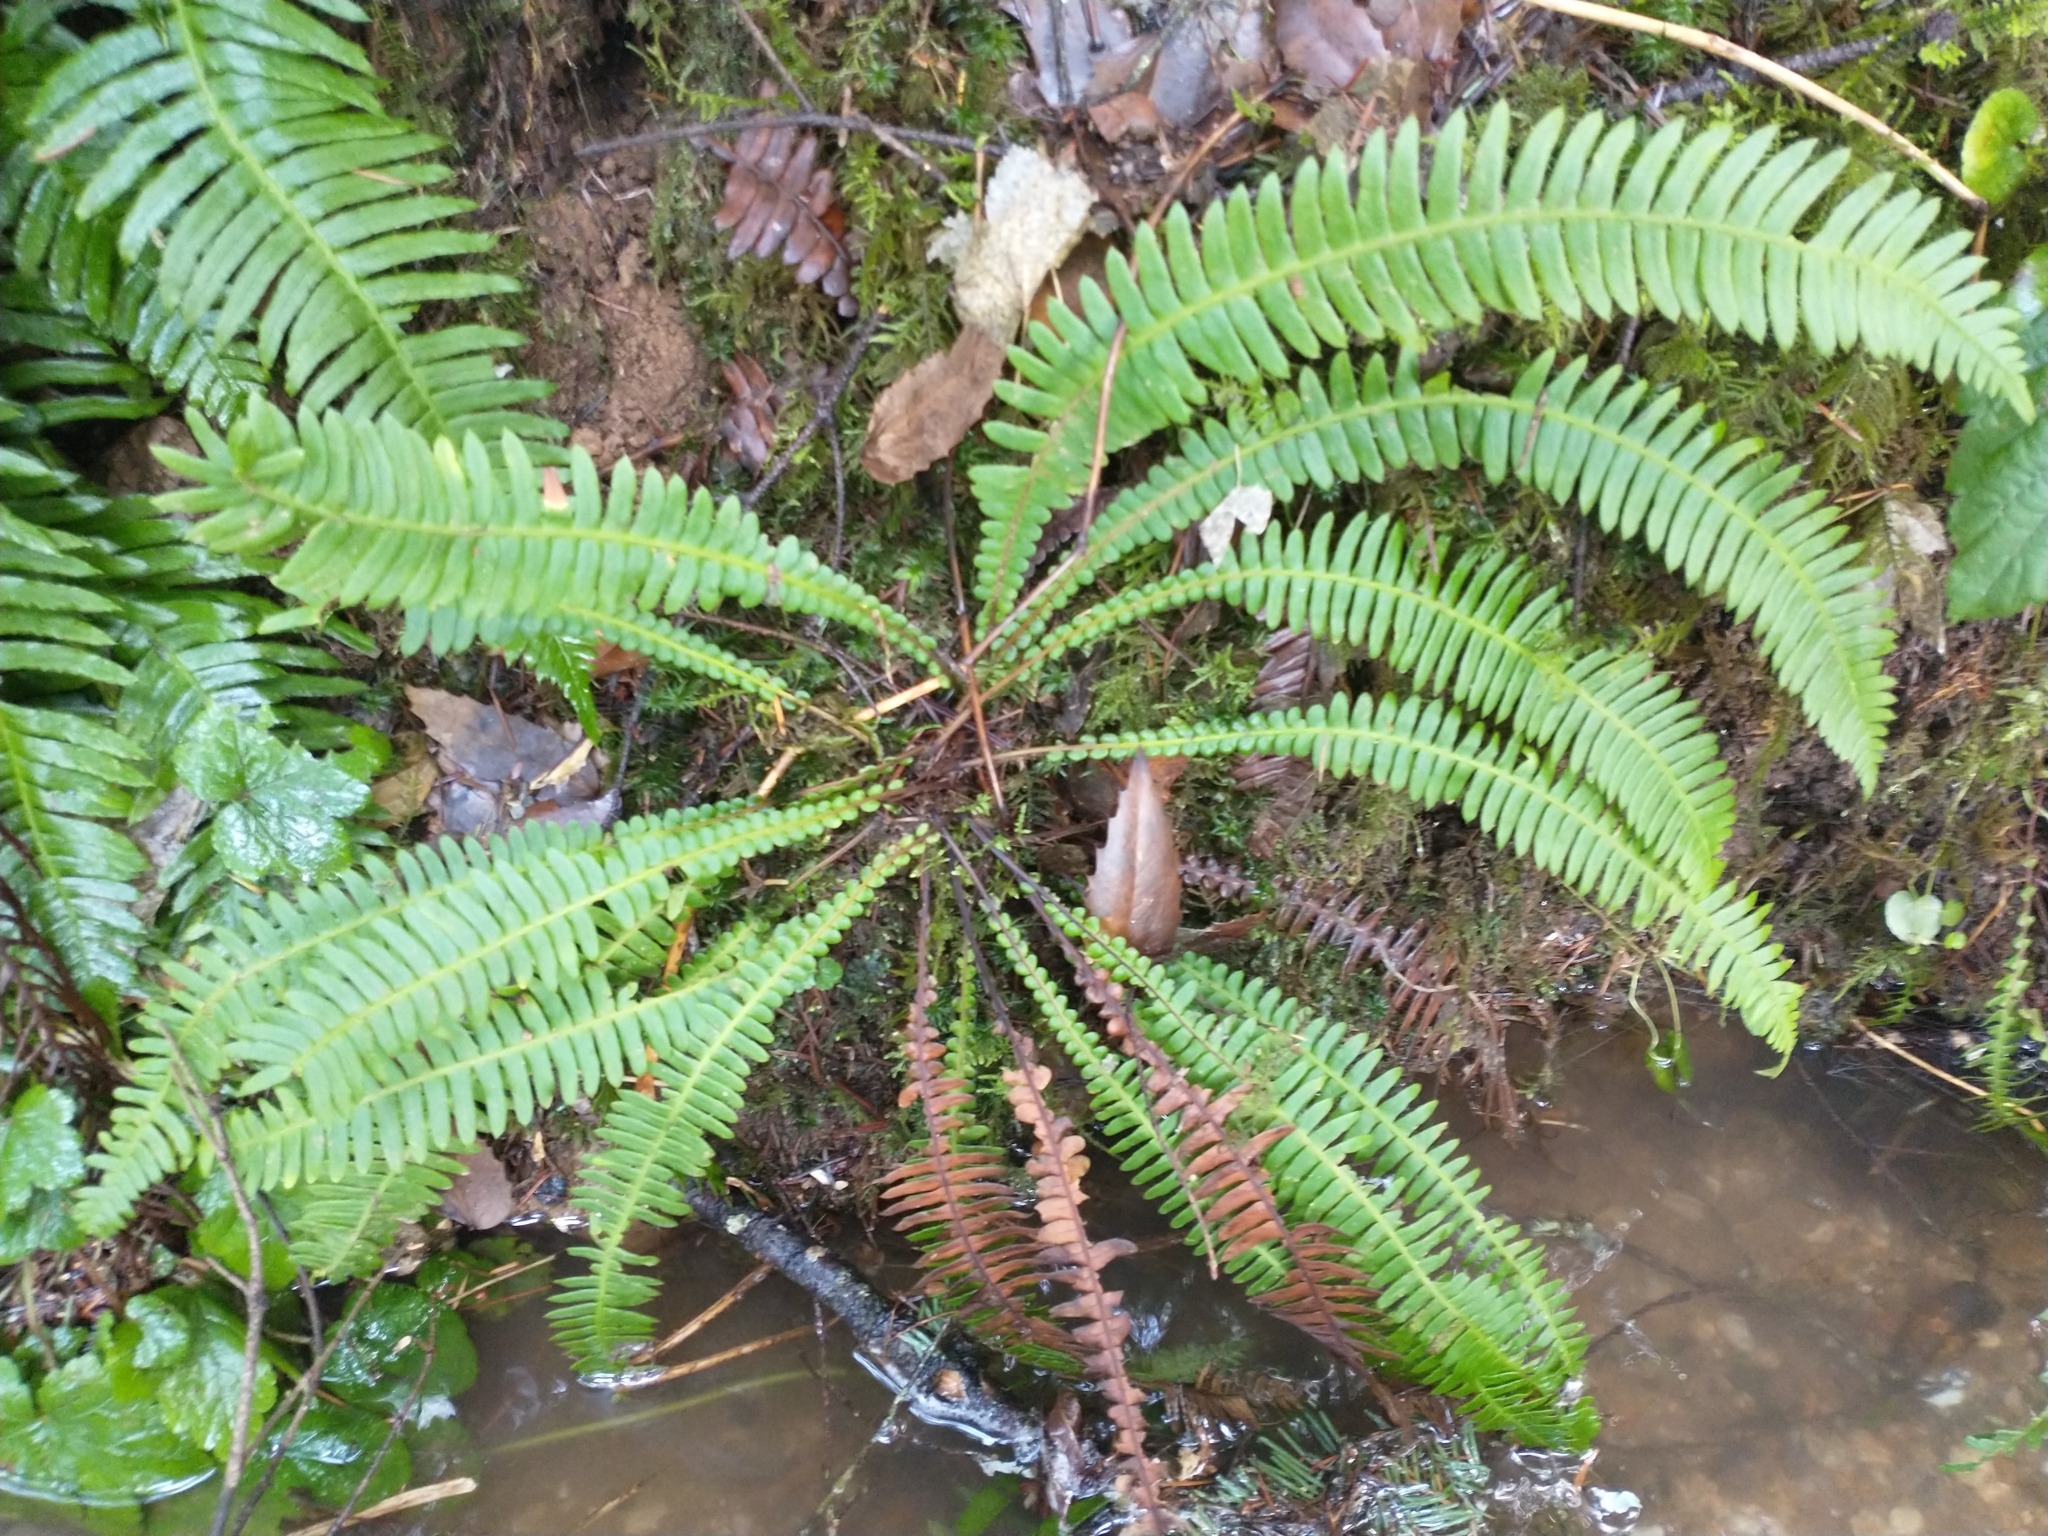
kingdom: Plantae
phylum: Tracheophyta
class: Polypodiopsida
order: Polypodiales
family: Blechnaceae
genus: Struthiopteris
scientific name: Struthiopteris spicant
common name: Deer fern
